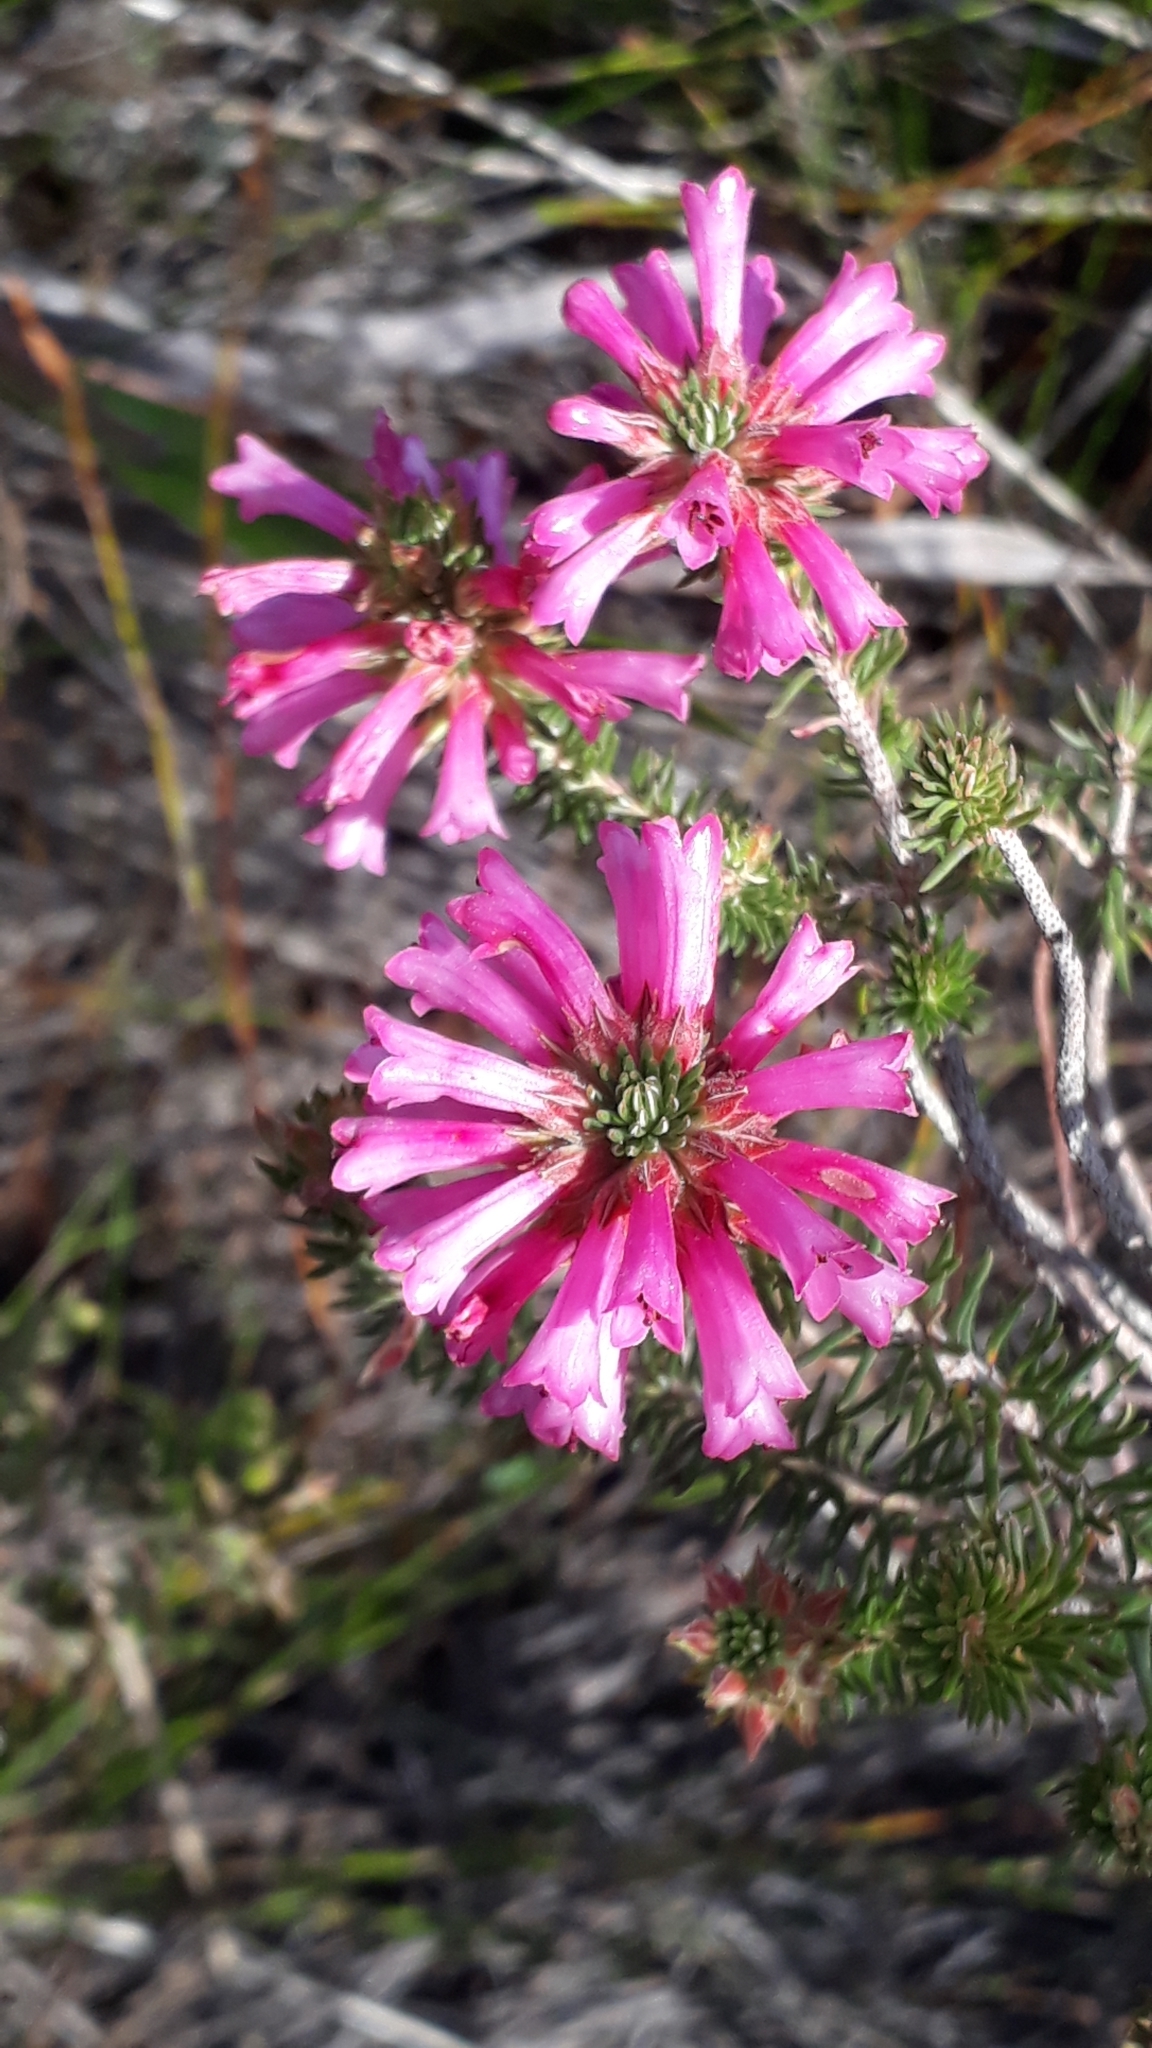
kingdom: Plantae
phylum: Tracheophyta
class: Magnoliopsida
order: Ericales
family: Ericaceae
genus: Erica
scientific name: Erica abietina
